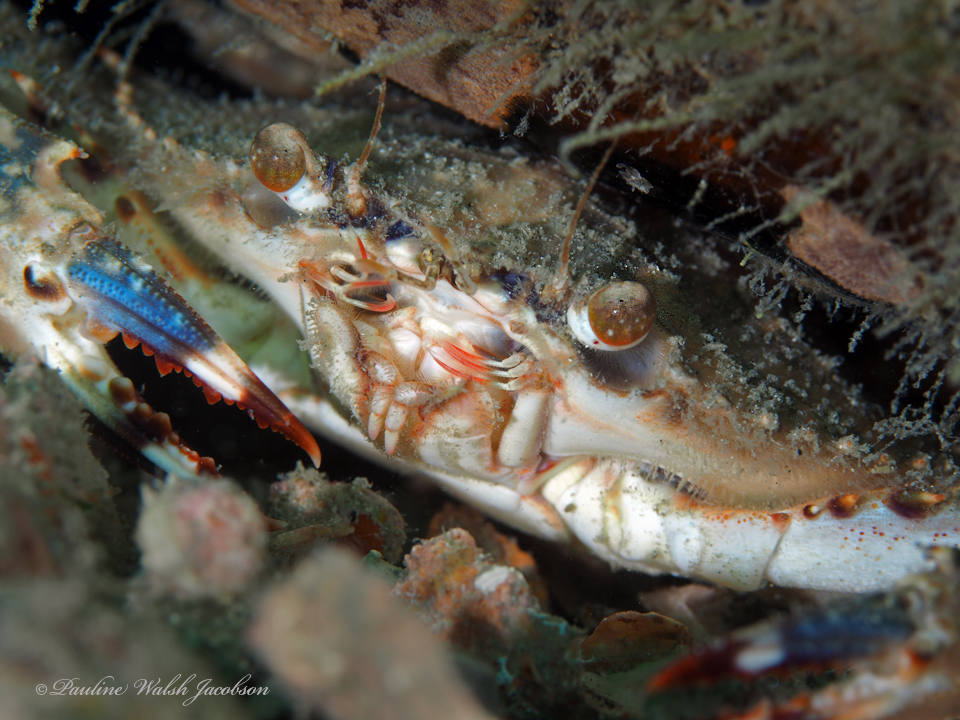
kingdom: Animalia
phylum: Arthropoda
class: Malacostraca
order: Decapoda
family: Portunidae
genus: Achelous
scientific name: Achelous spinimanus
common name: Spiny-handed portunus
